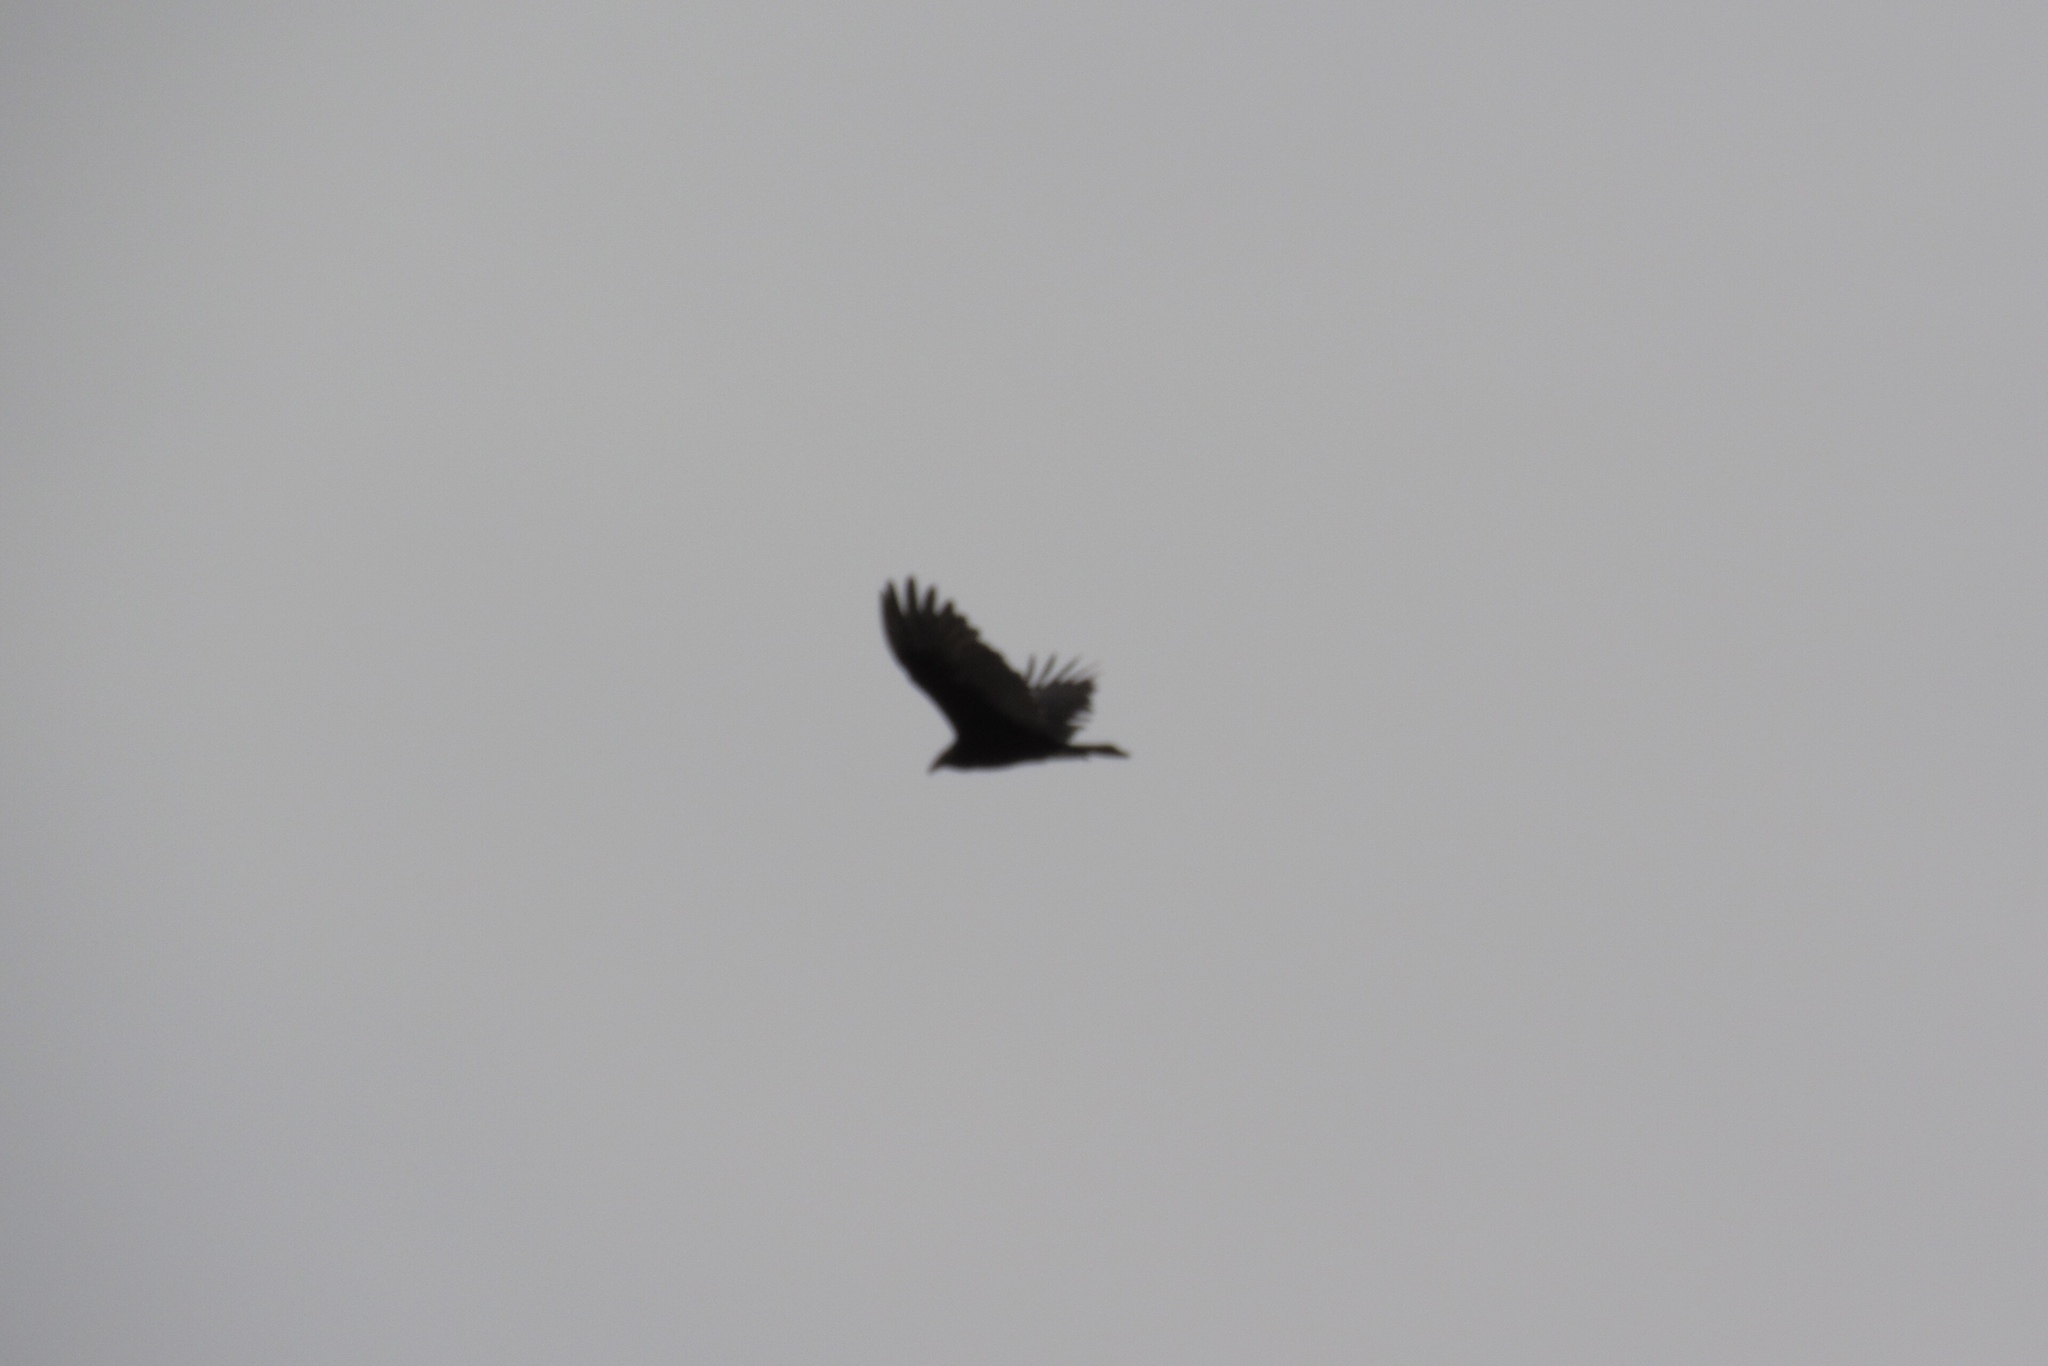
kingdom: Animalia
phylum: Chordata
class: Aves
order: Accipitriformes
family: Cathartidae
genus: Cathartes
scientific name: Cathartes aura
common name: Turkey vulture
